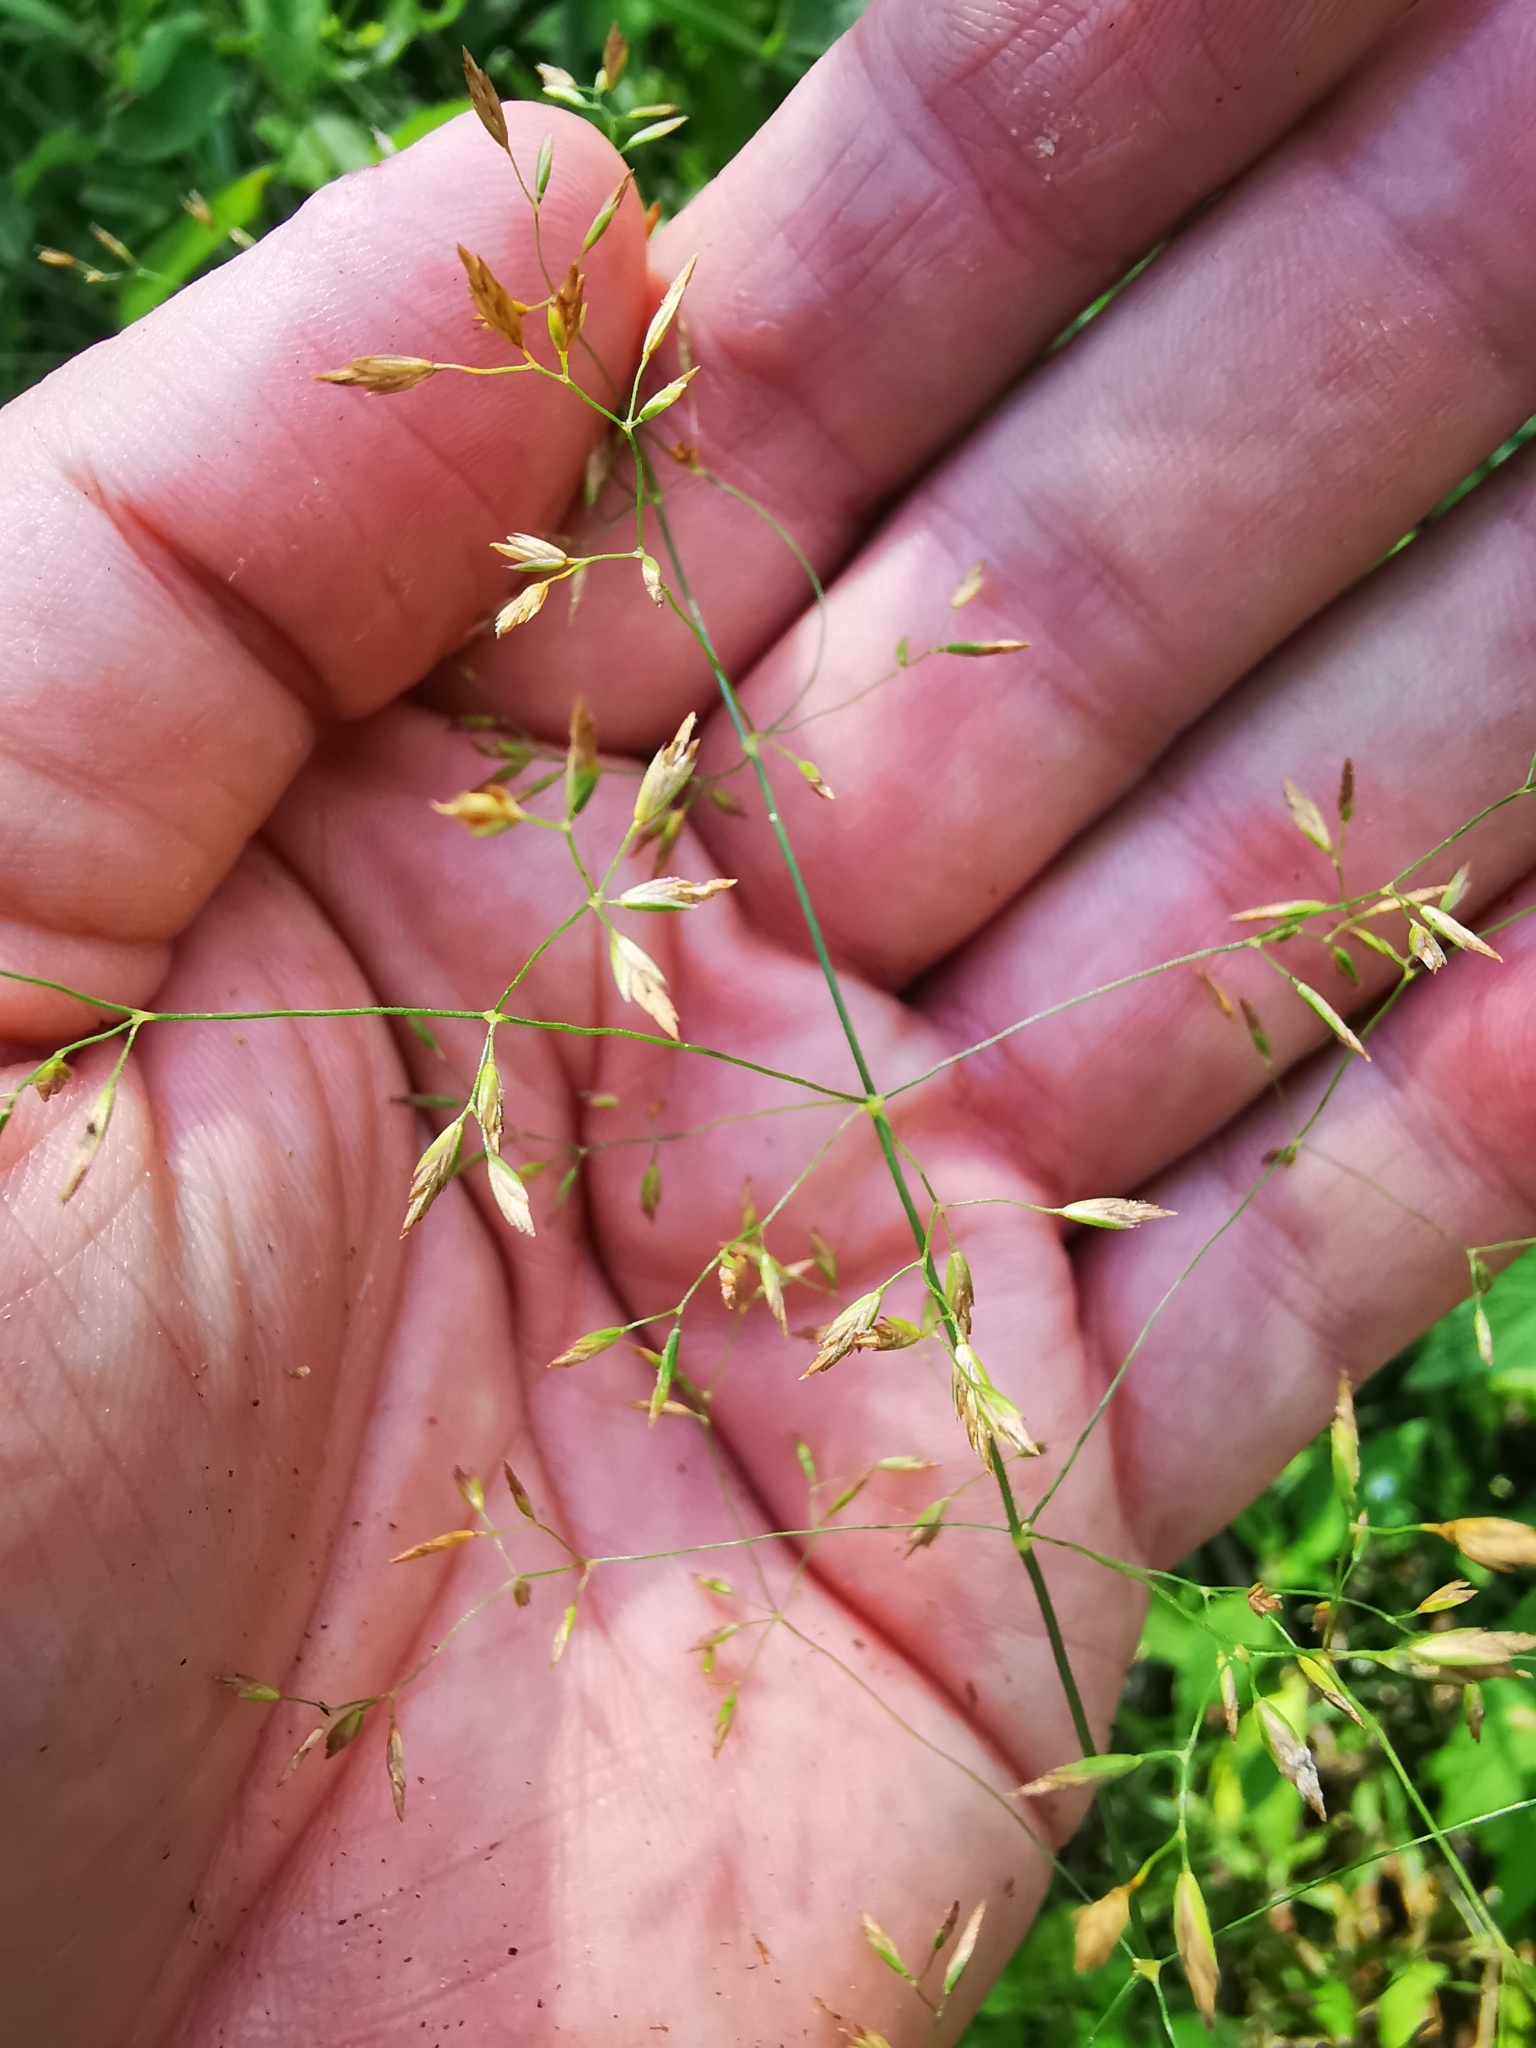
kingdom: Plantae
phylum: Tracheophyta
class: Liliopsida
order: Poales
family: Poaceae
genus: Poa
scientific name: Poa palustris
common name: Swamp meadow-grass
